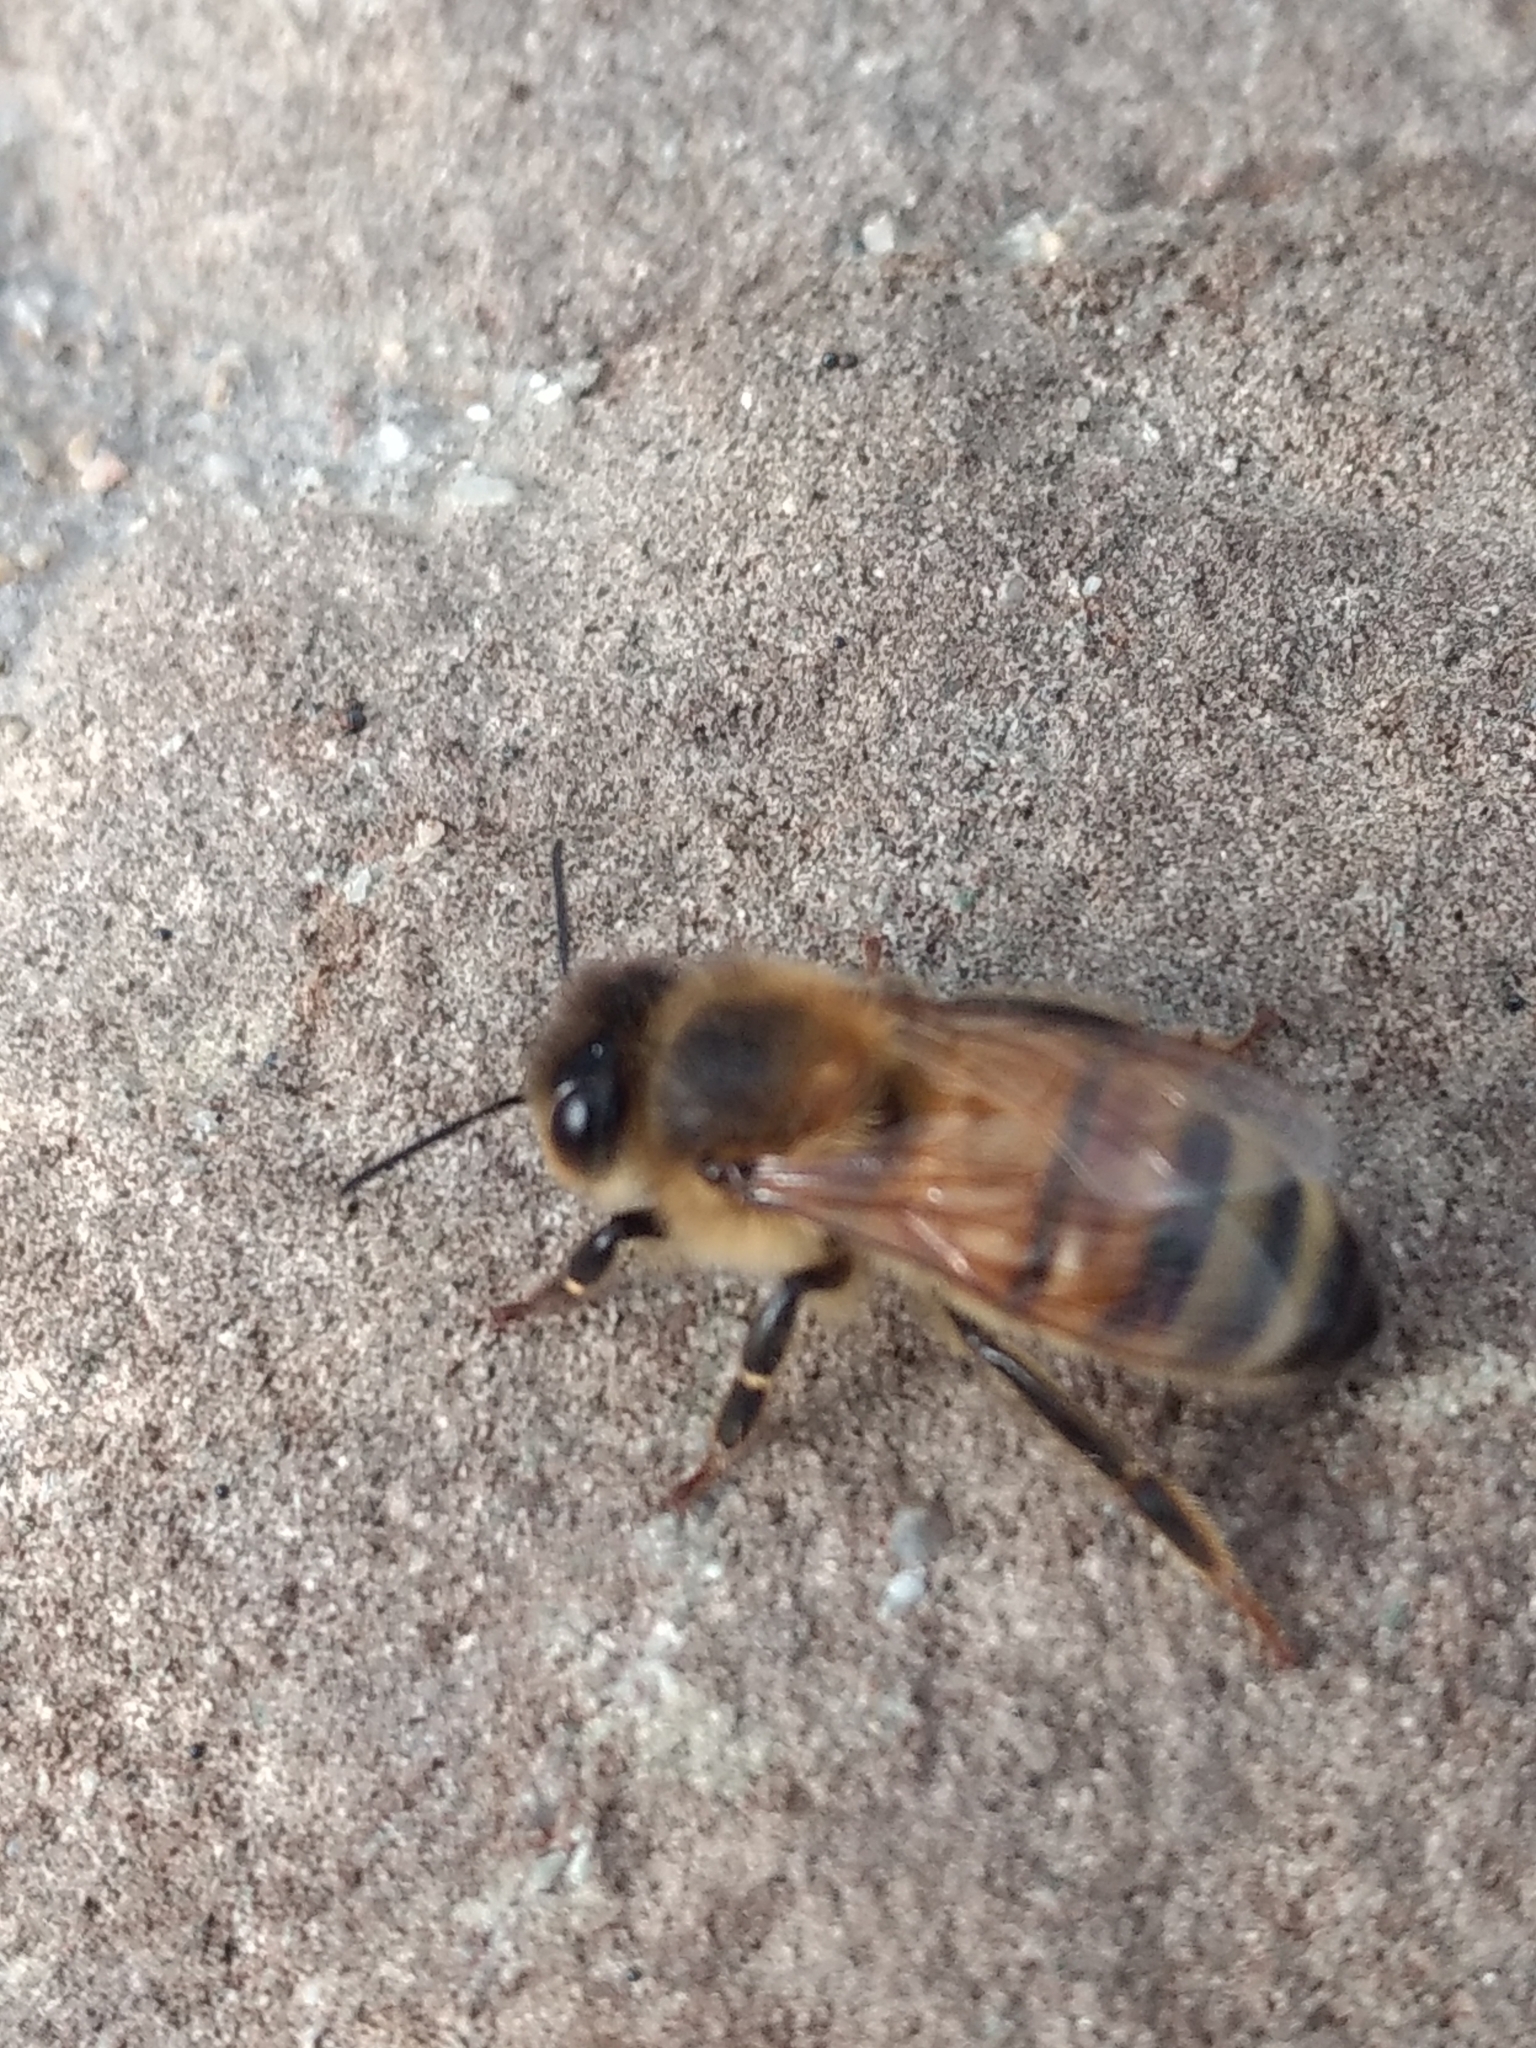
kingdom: Animalia
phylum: Arthropoda
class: Insecta
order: Hymenoptera
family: Apidae
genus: Apis
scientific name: Apis mellifera
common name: Honey bee
